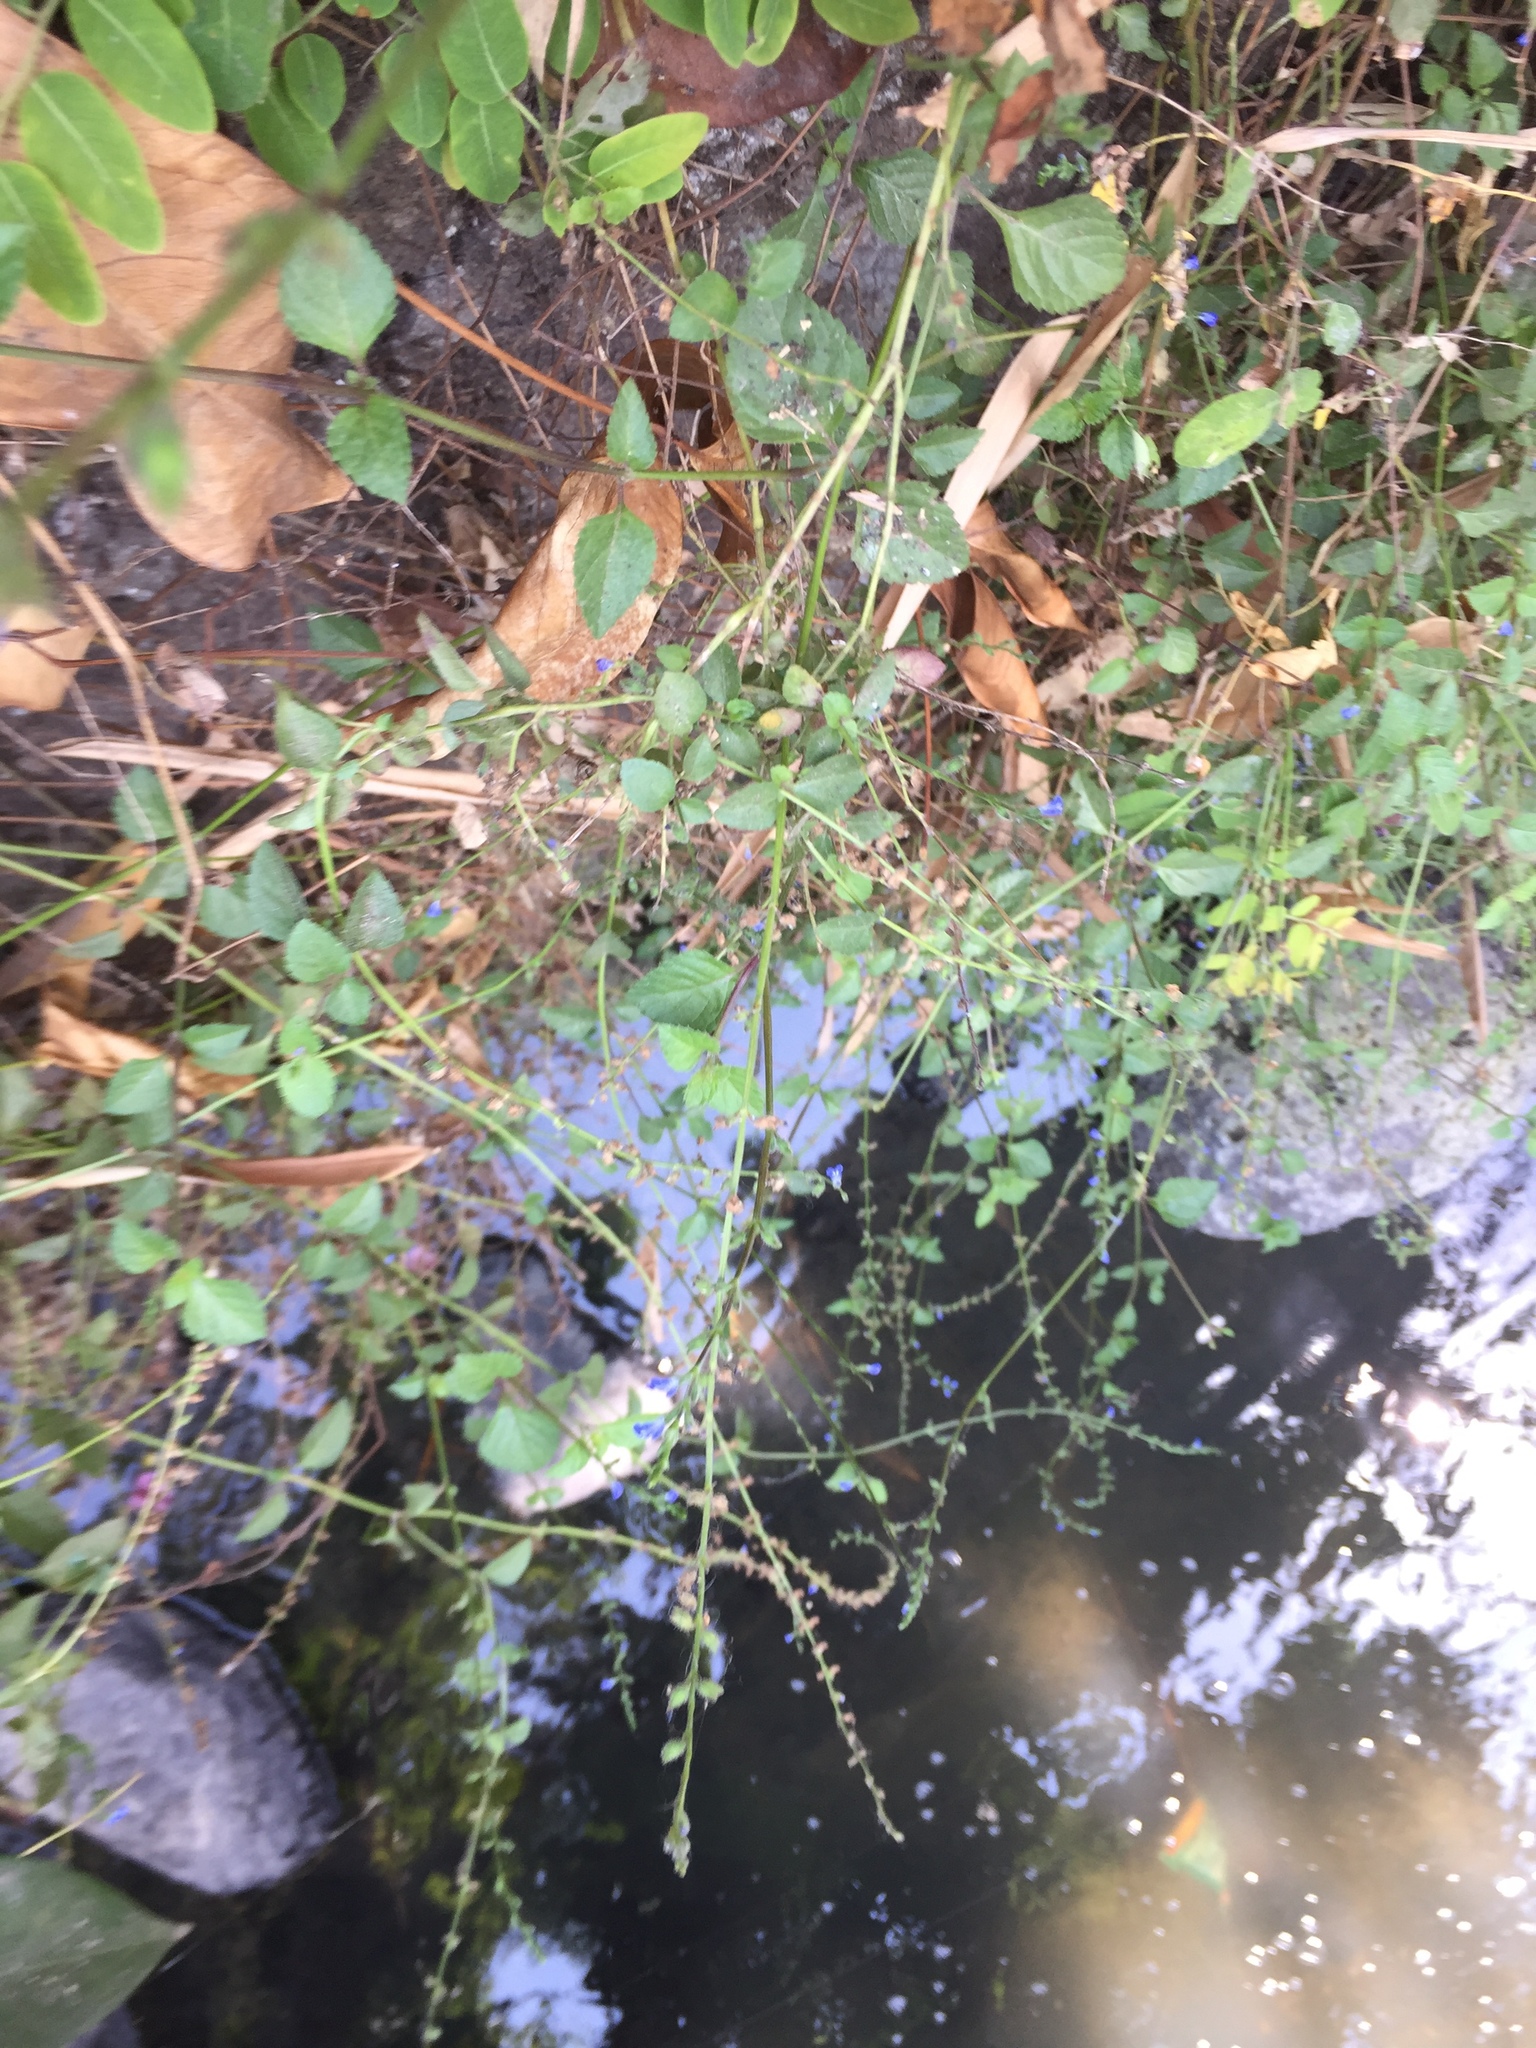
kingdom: Plantae
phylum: Tracheophyta
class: Magnoliopsida
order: Lamiales
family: Lamiaceae
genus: Salvia
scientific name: Salvia misella
